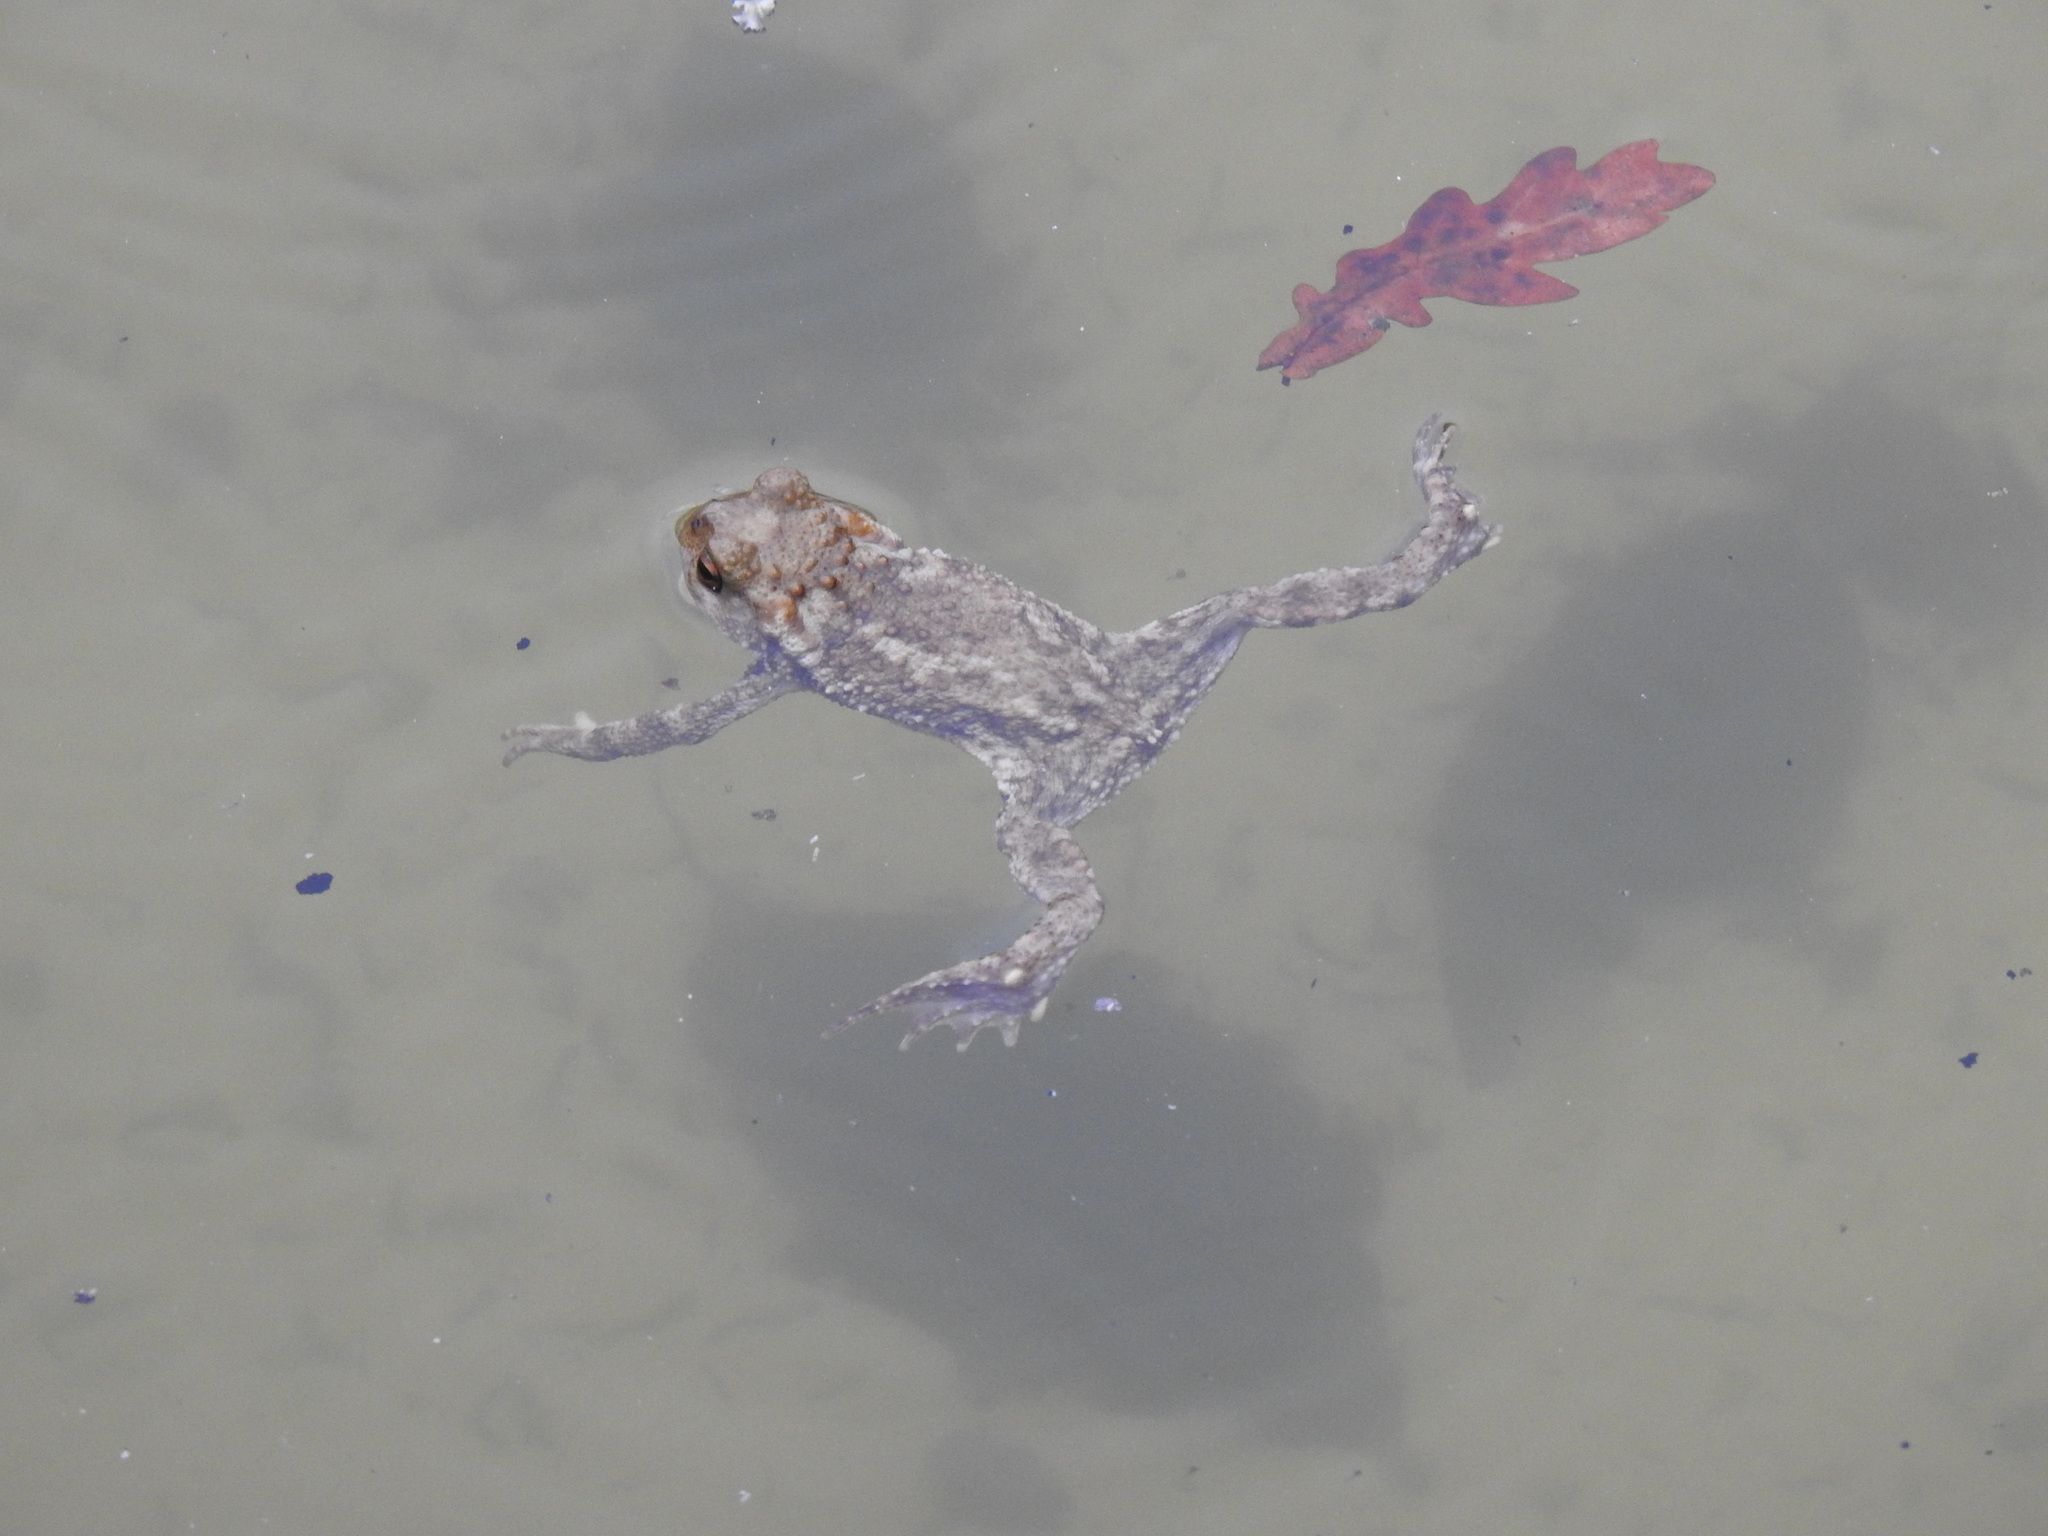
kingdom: Animalia
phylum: Chordata
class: Amphibia
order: Anura
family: Bufonidae
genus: Bufo
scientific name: Bufo spinosus
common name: Western common toad
